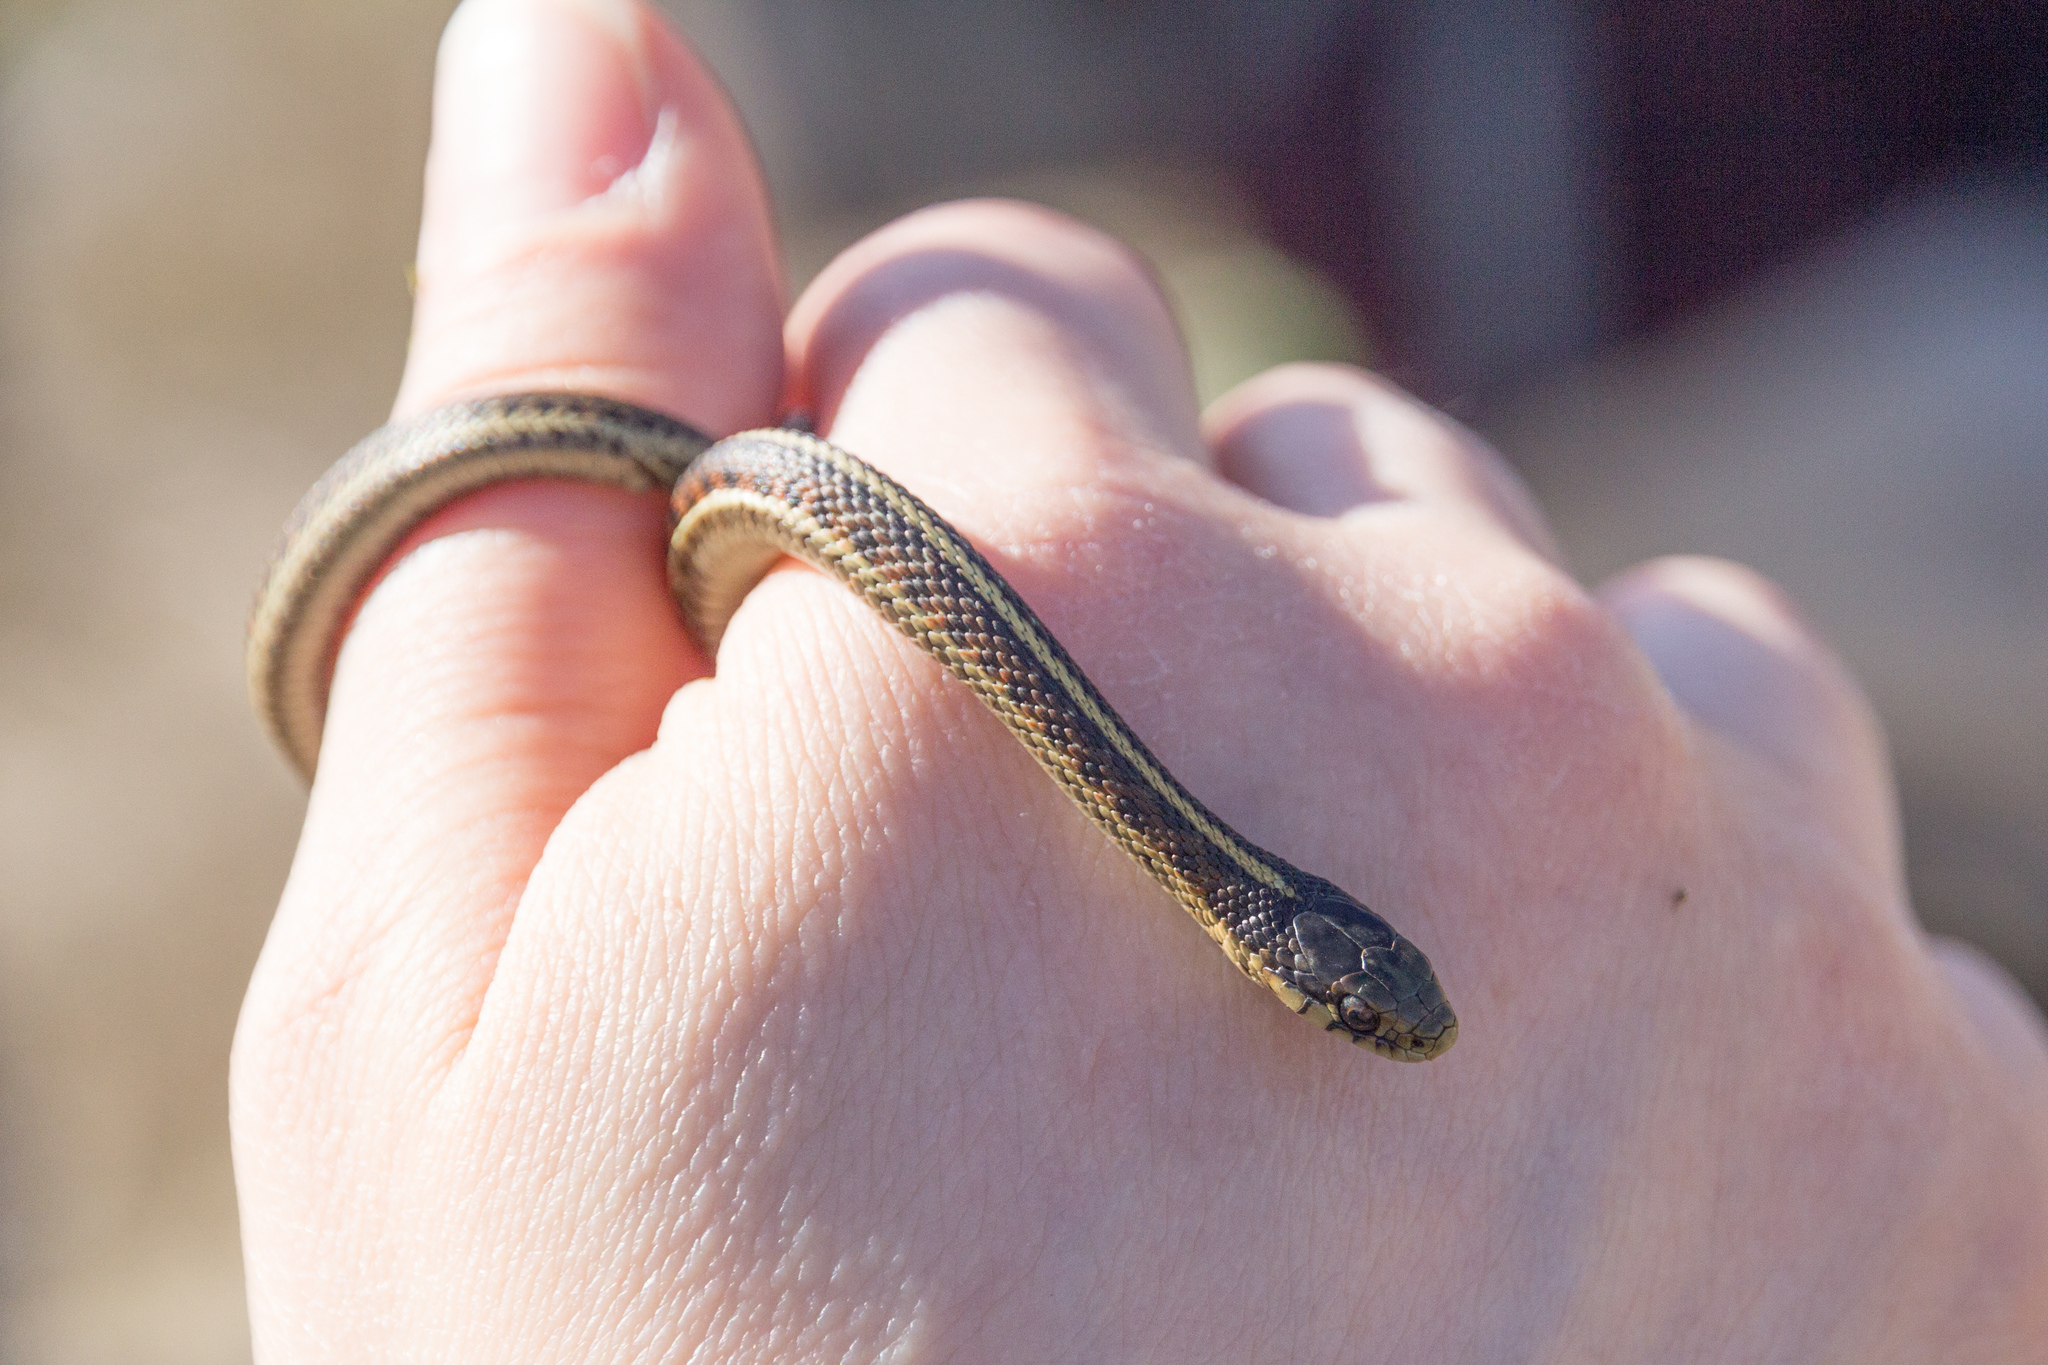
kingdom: Animalia
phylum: Chordata
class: Squamata
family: Colubridae
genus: Thamnophis
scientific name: Thamnophis elegans
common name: Western terrestrial garter snake
